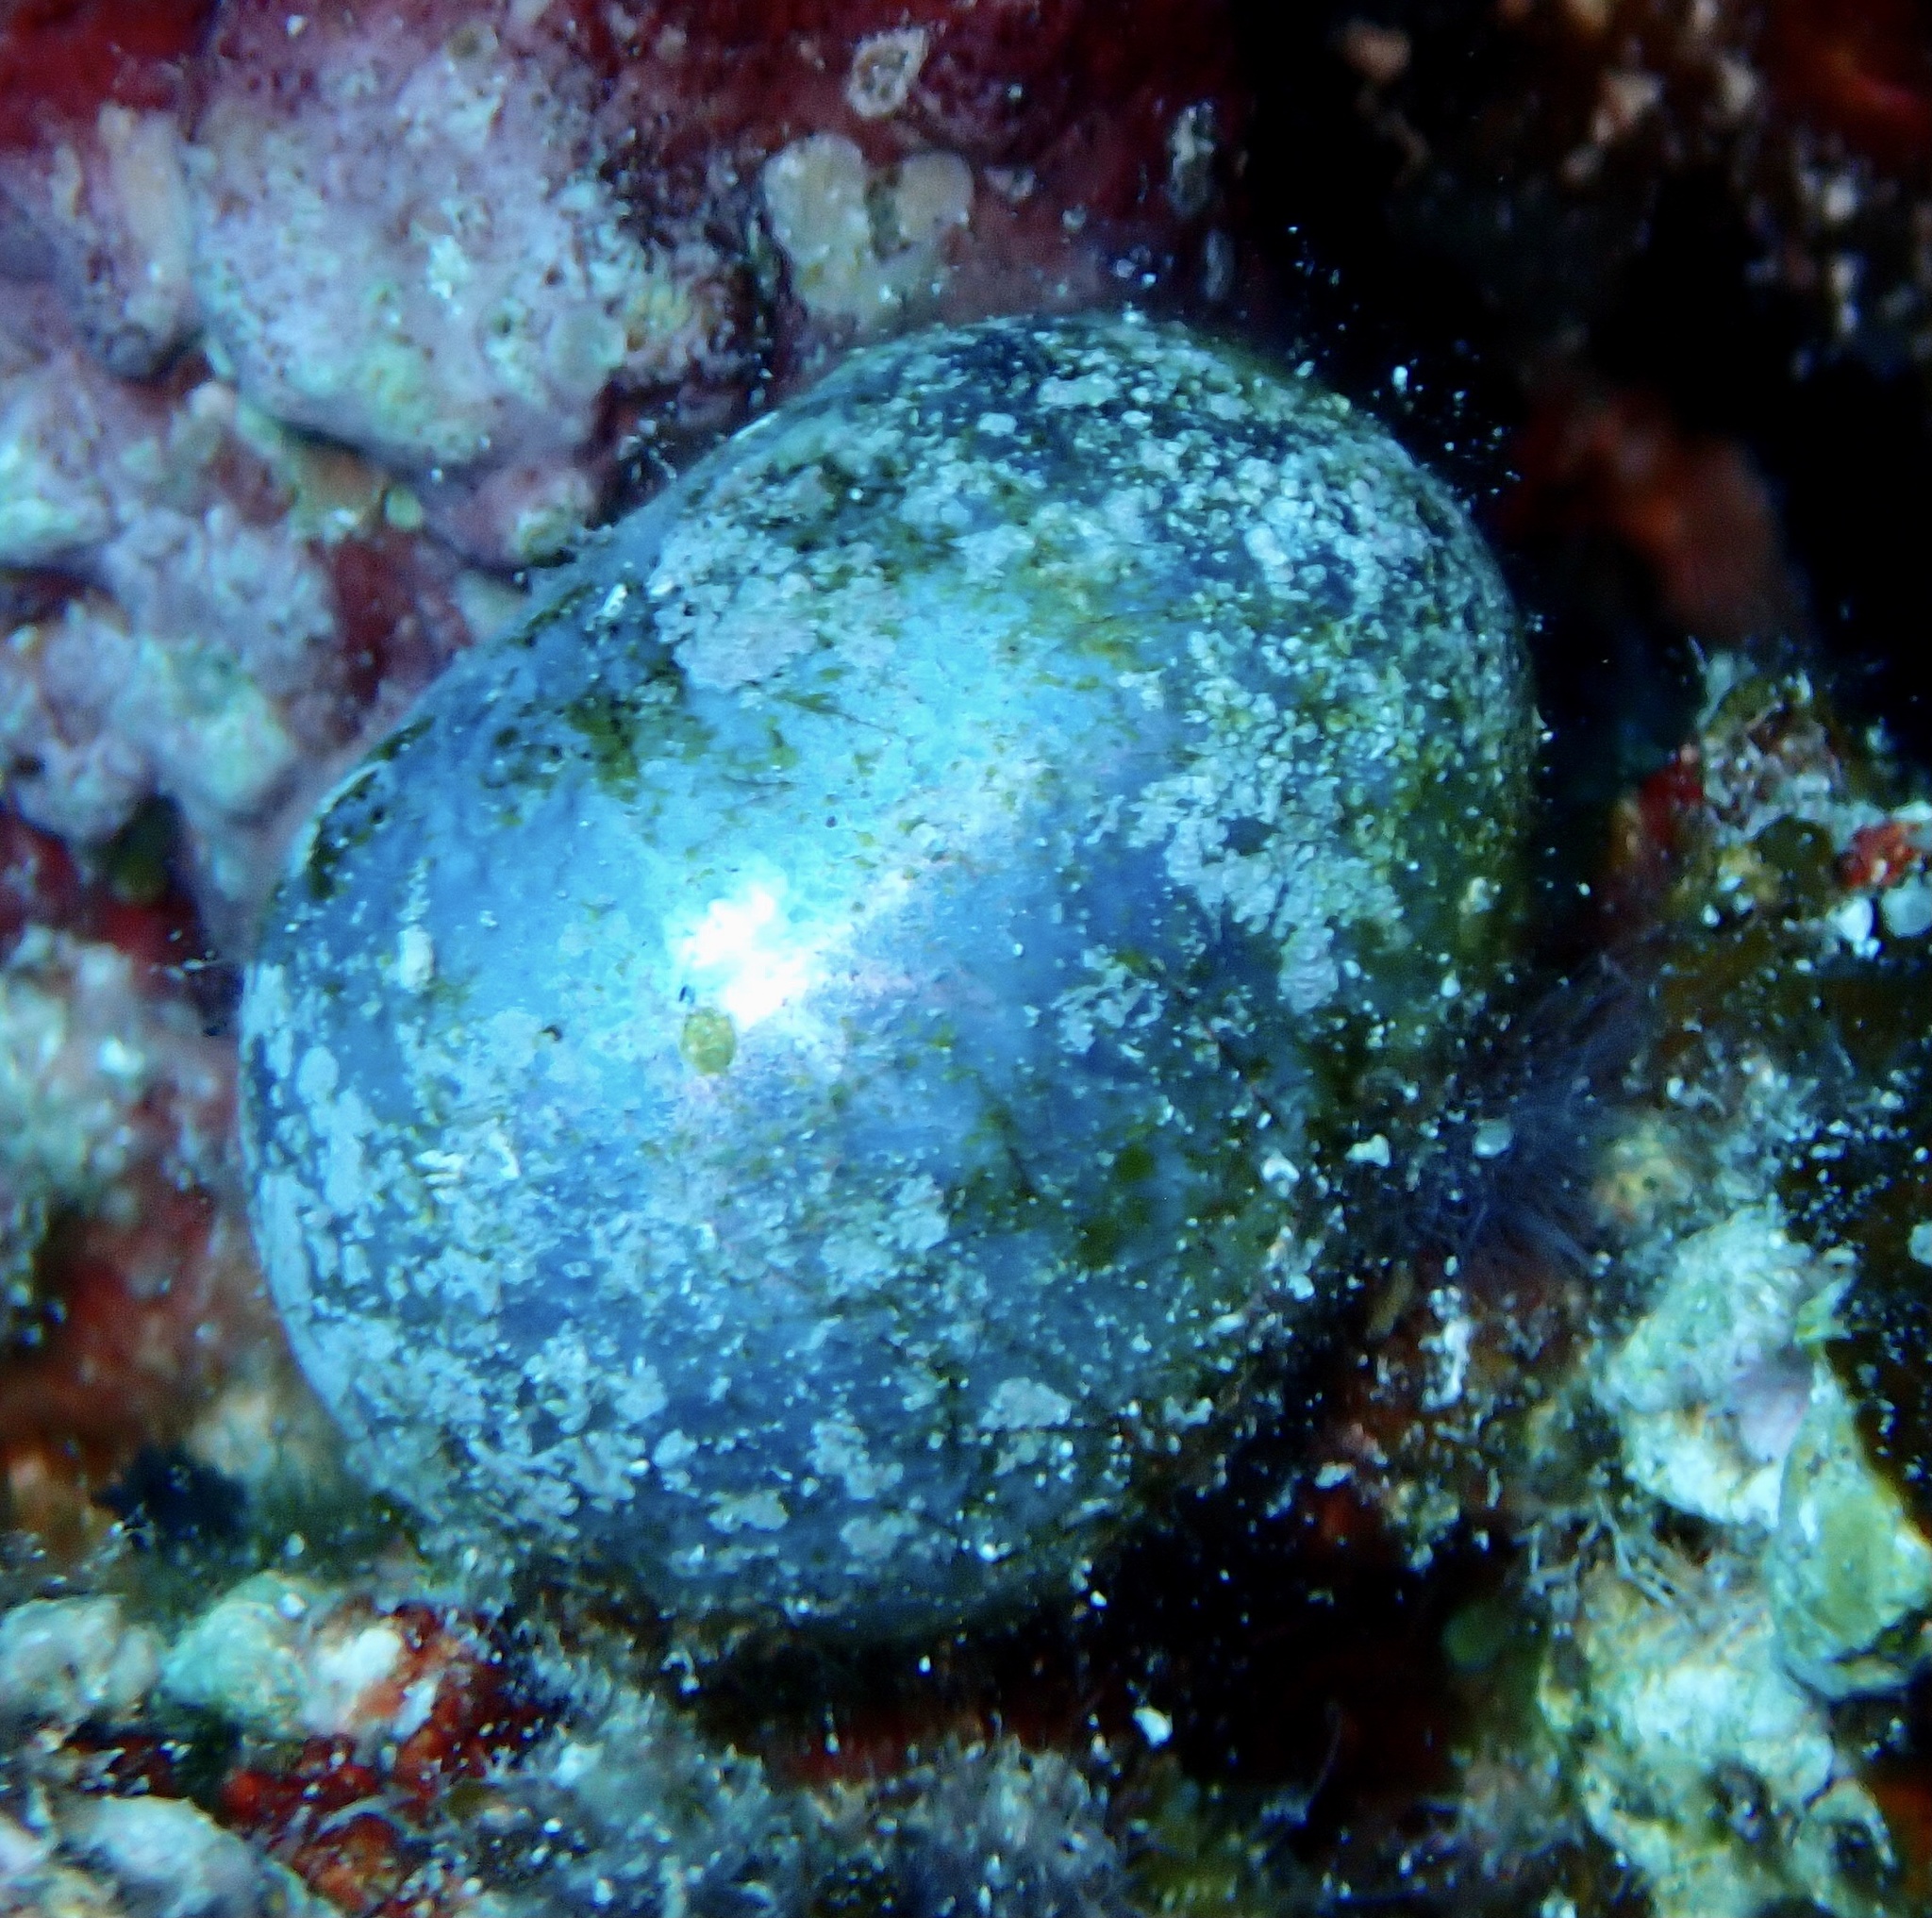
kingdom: Plantae
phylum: Chlorophyta
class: Ulvophyceae
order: Siphonocladales
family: Valoniaceae
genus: Valonia
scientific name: Valonia ventricosa
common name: Sea pearl
